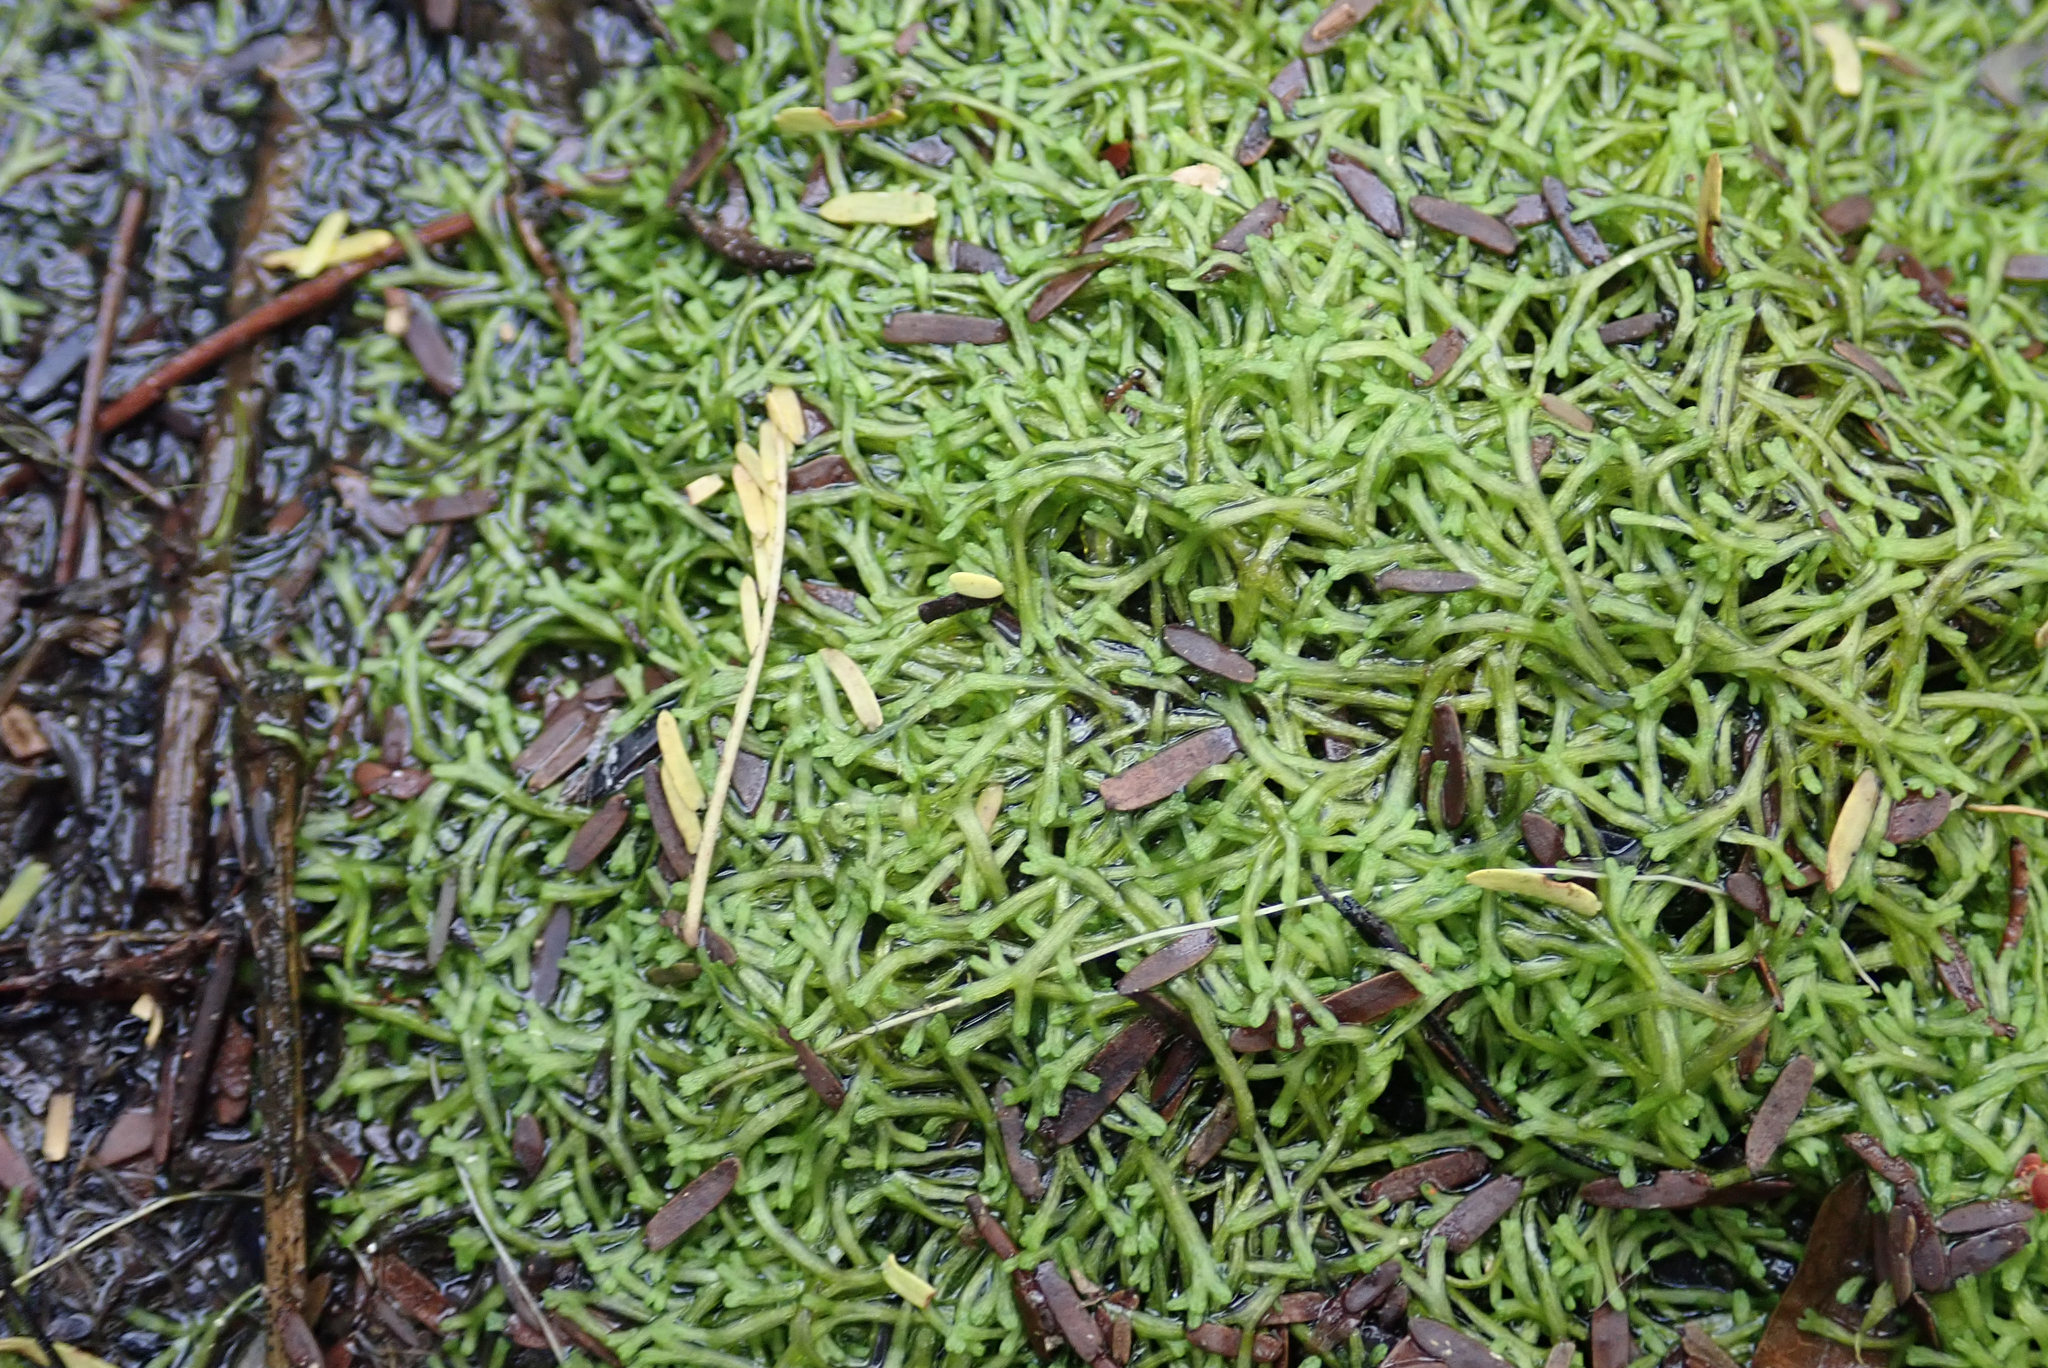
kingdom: Plantae
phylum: Marchantiophyta
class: Marchantiopsida
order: Marchantiales
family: Ricciaceae
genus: Riccia
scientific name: Riccia stricta
